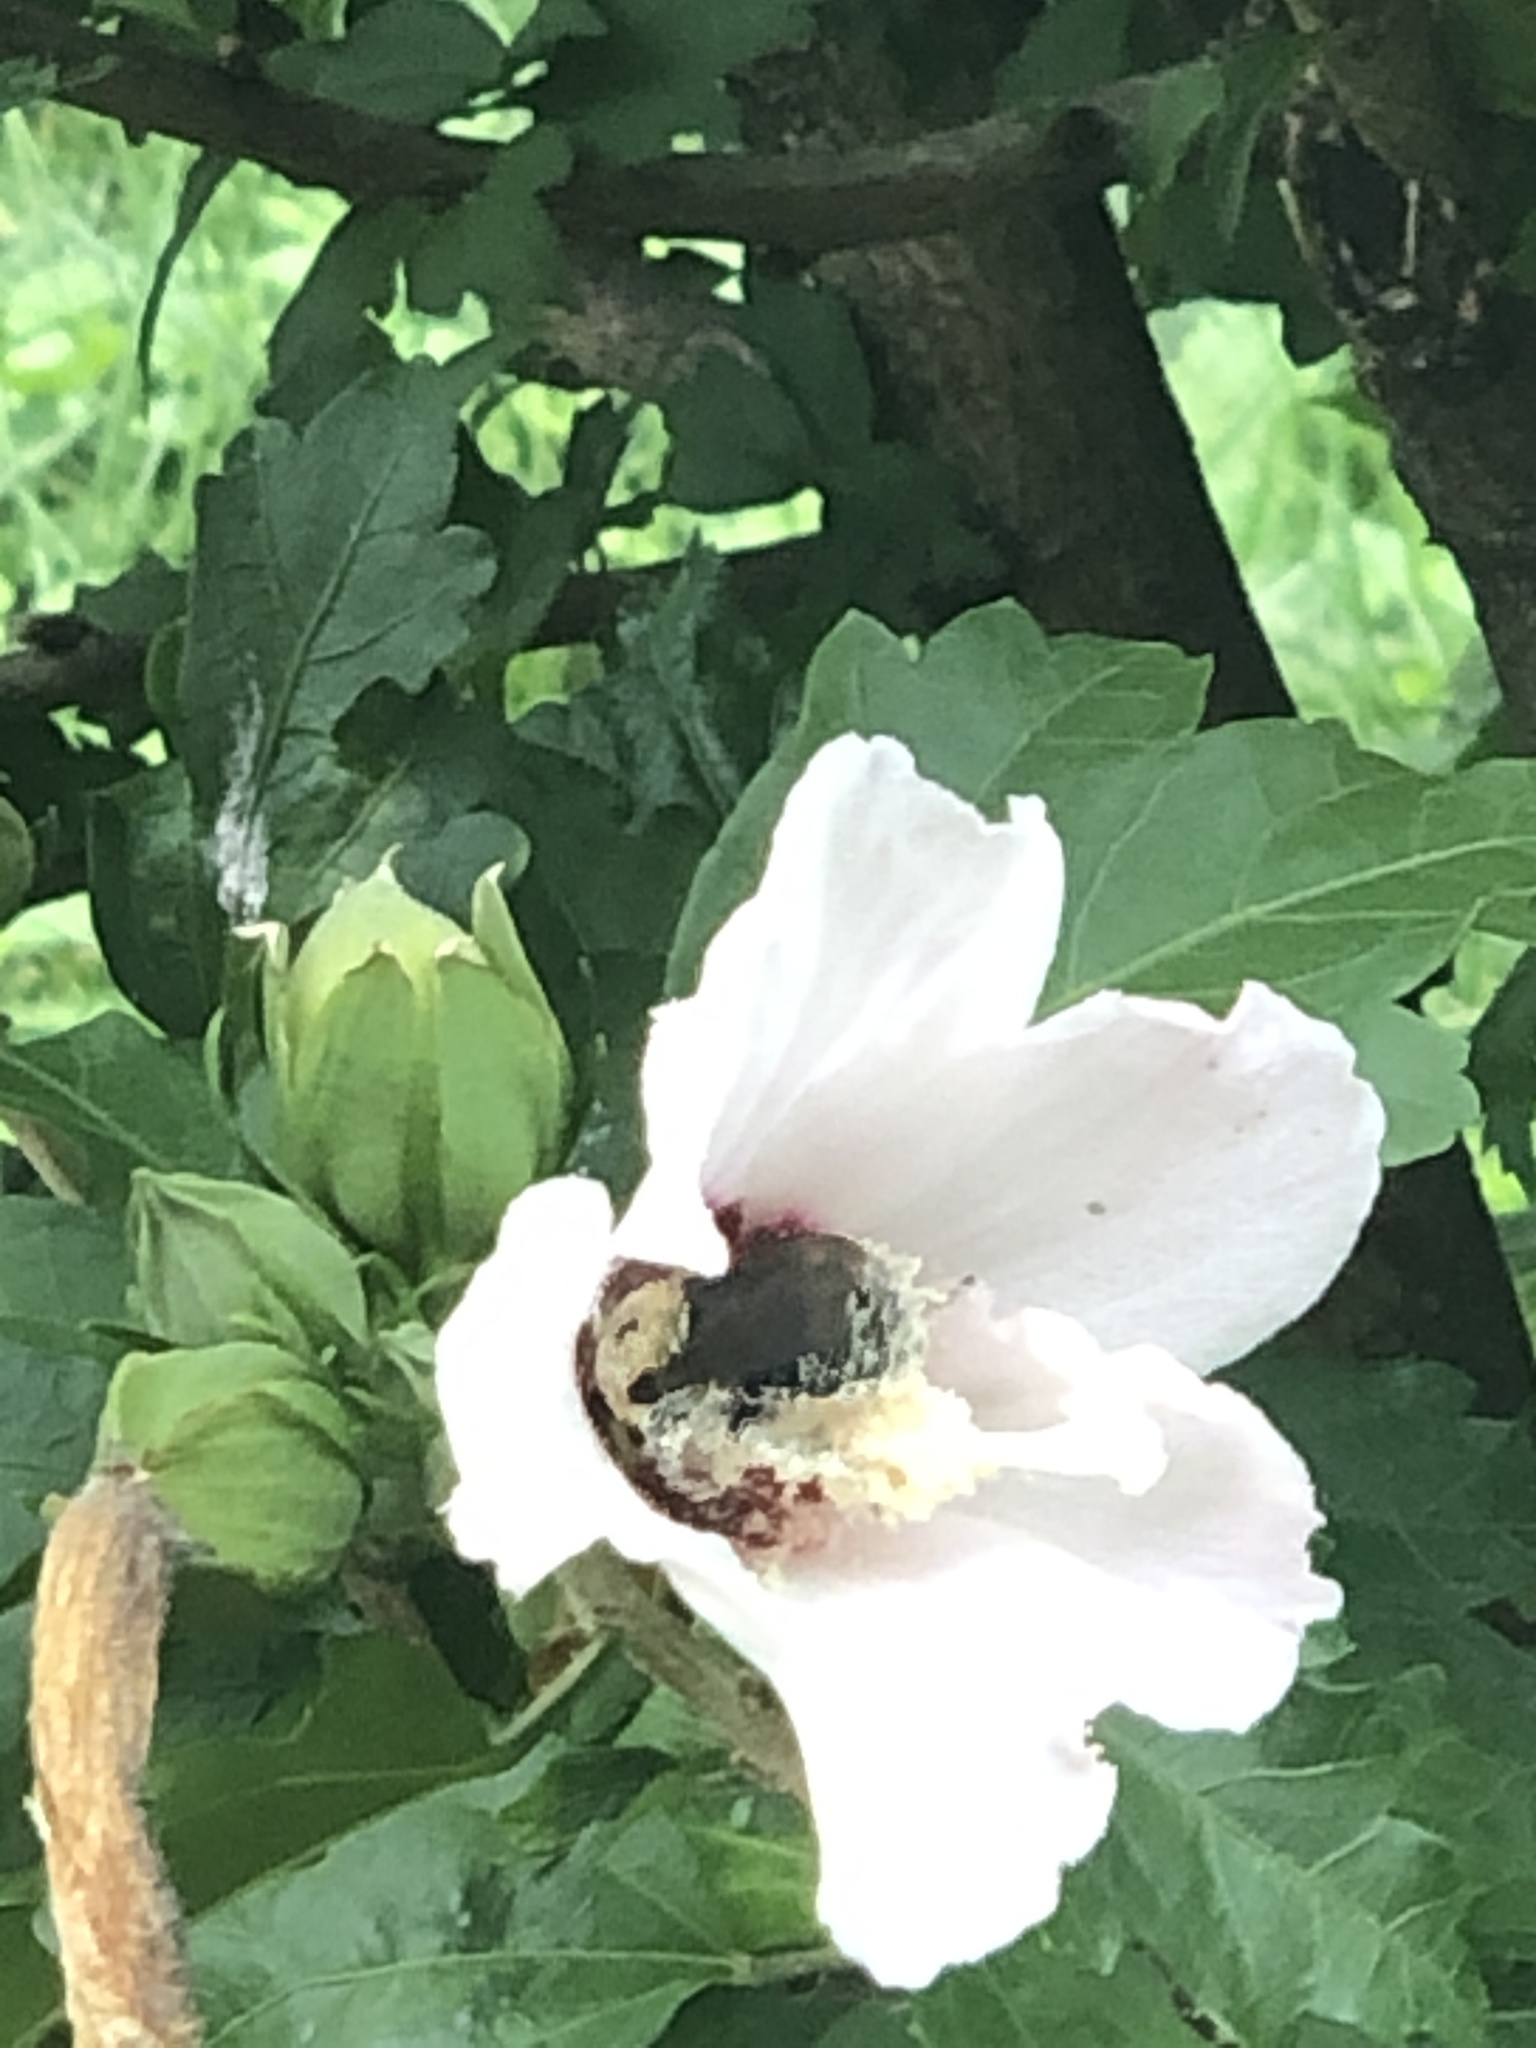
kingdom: Animalia
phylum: Arthropoda
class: Insecta
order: Hymenoptera
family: Apidae
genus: Bombus
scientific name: Bombus
